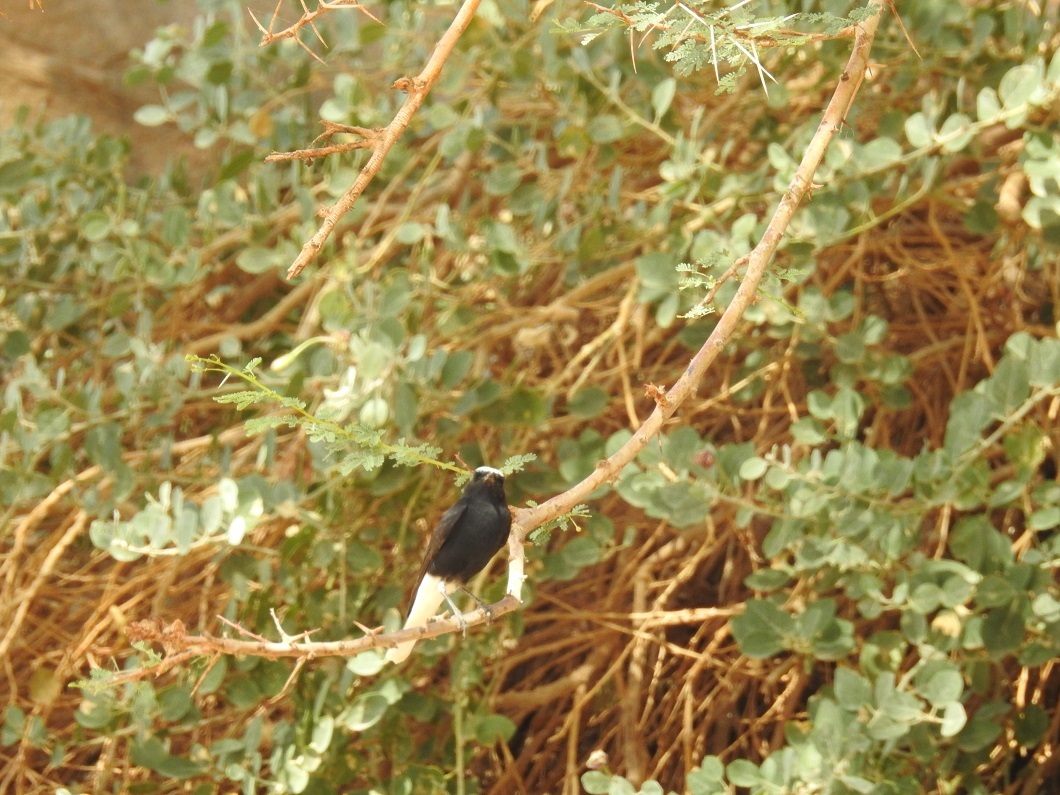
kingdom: Animalia
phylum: Chordata
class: Aves
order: Passeriformes
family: Muscicapidae
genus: Oenanthe
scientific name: Oenanthe leucopyga
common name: White-crowned wheatear
